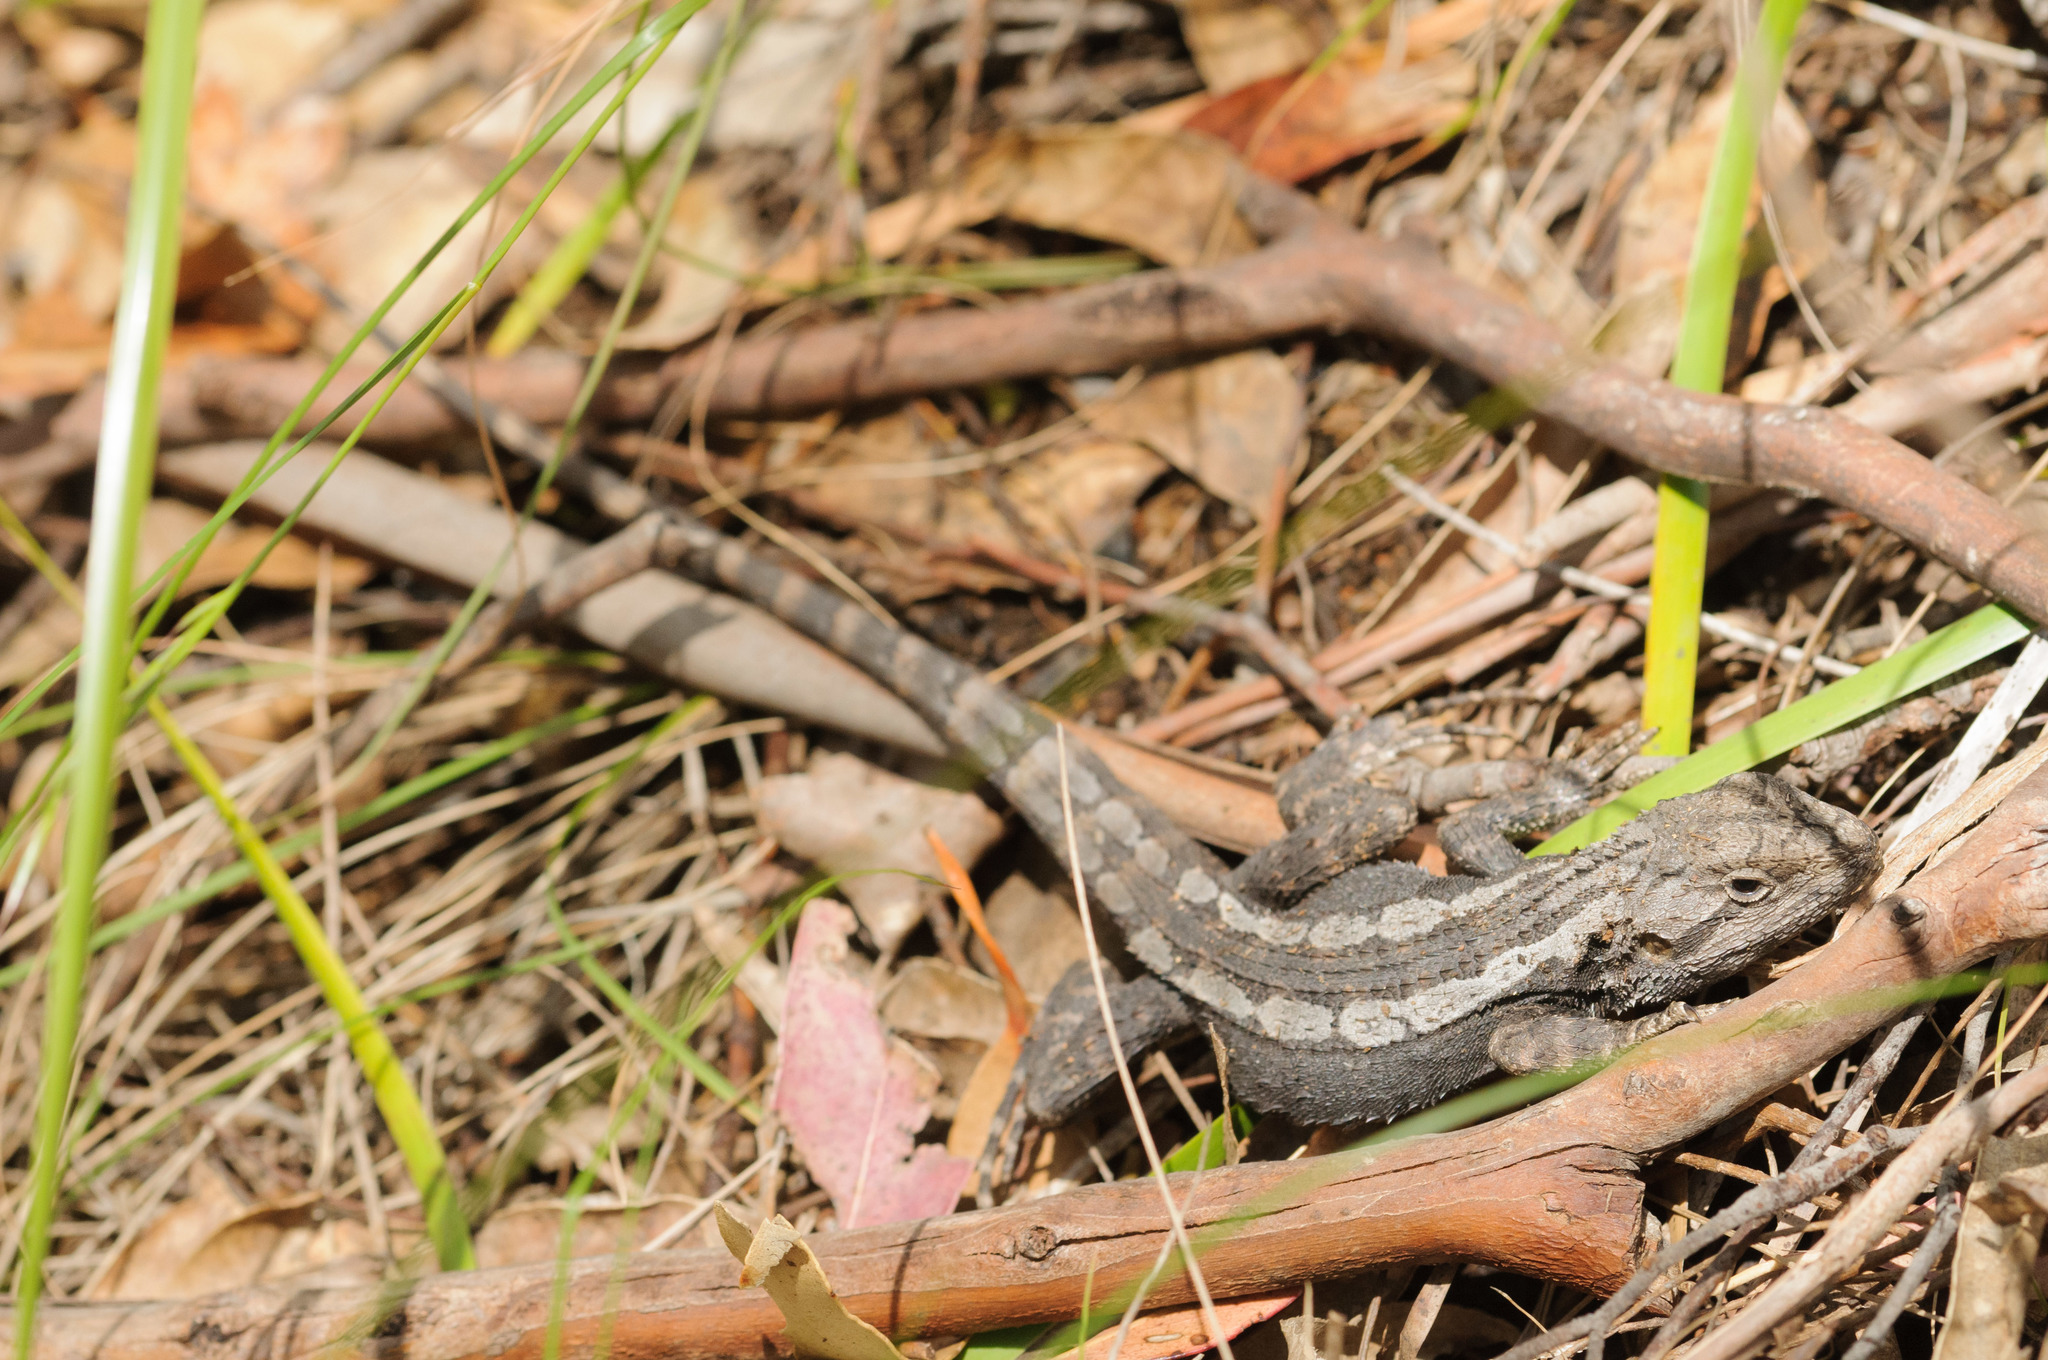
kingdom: Animalia
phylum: Chordata
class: Squamata
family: Agamidae
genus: Amphibolurus
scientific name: Amphibolurus muricatus
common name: Jacky lizard
